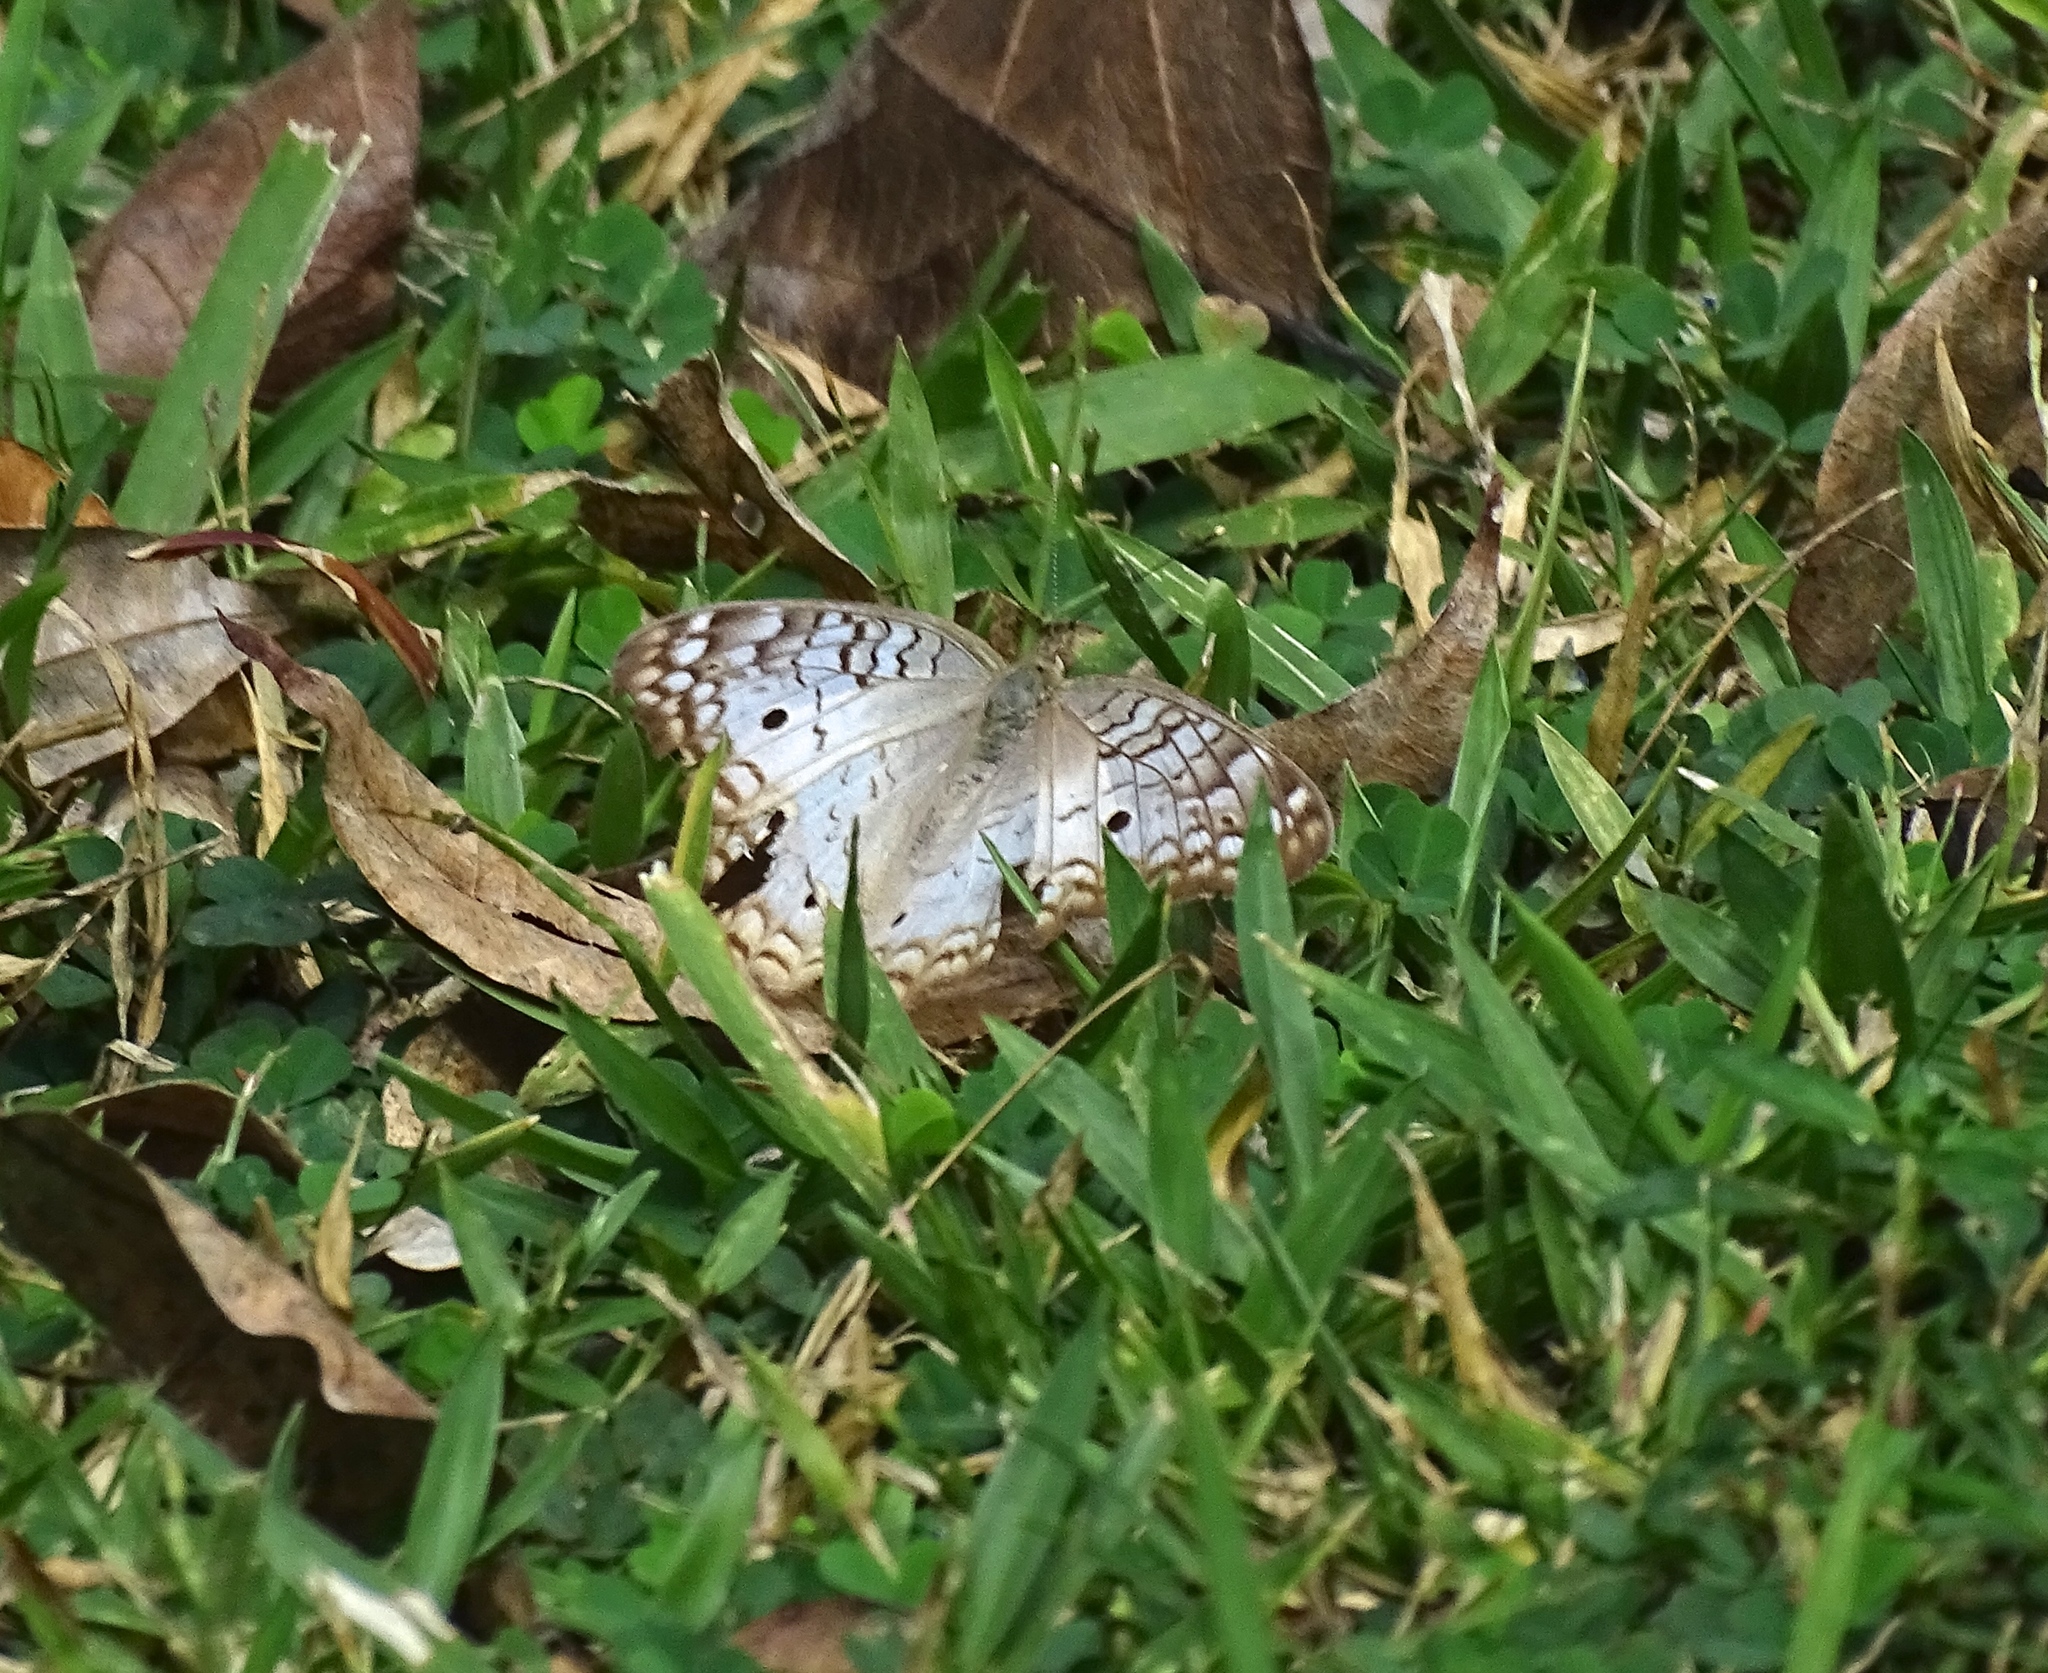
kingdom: Animalia
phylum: Arthropoda
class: Insecta
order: Lepidoptera
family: Nymphalidae
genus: Anartia
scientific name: Anartia jatrophae
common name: White peacock
